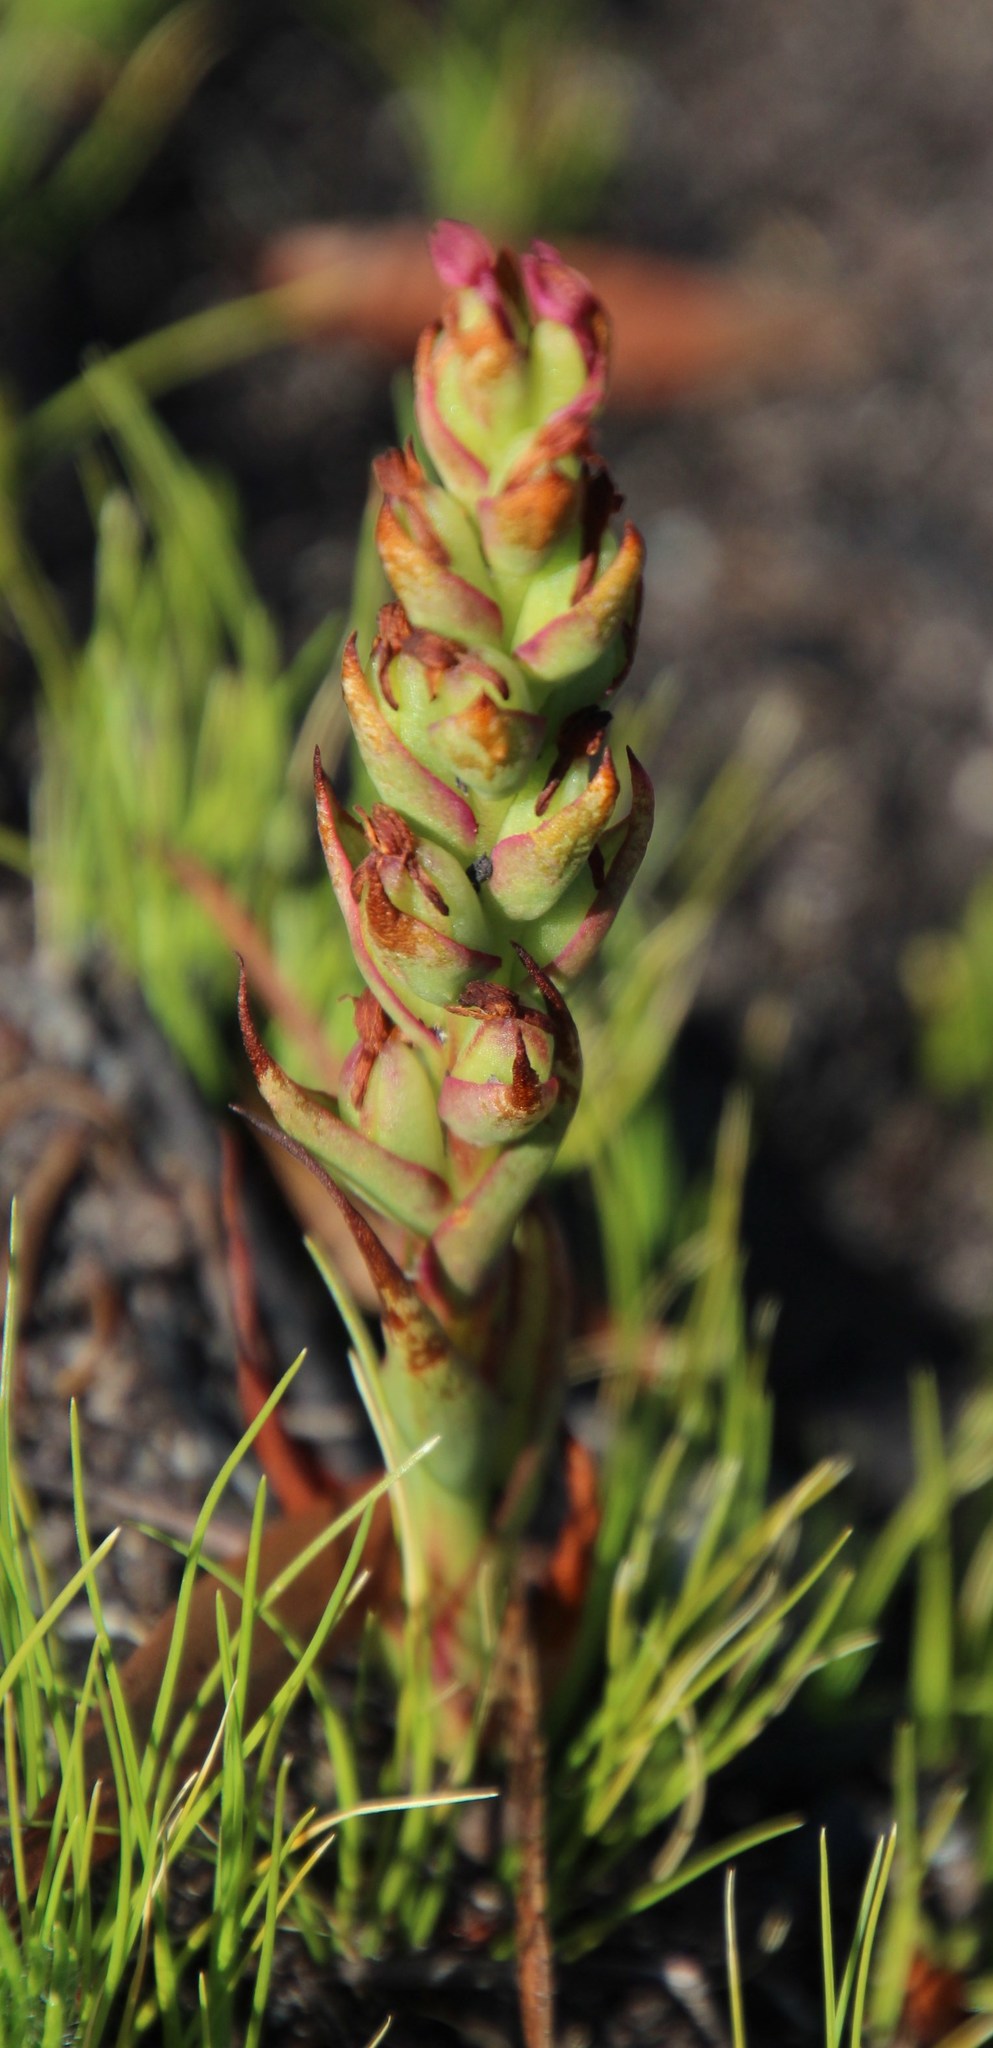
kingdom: Plantae
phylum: Tracheophyta
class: Liliopsida
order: Asparagales
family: Orchidaceae
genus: Disa
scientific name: Disa bracteata
